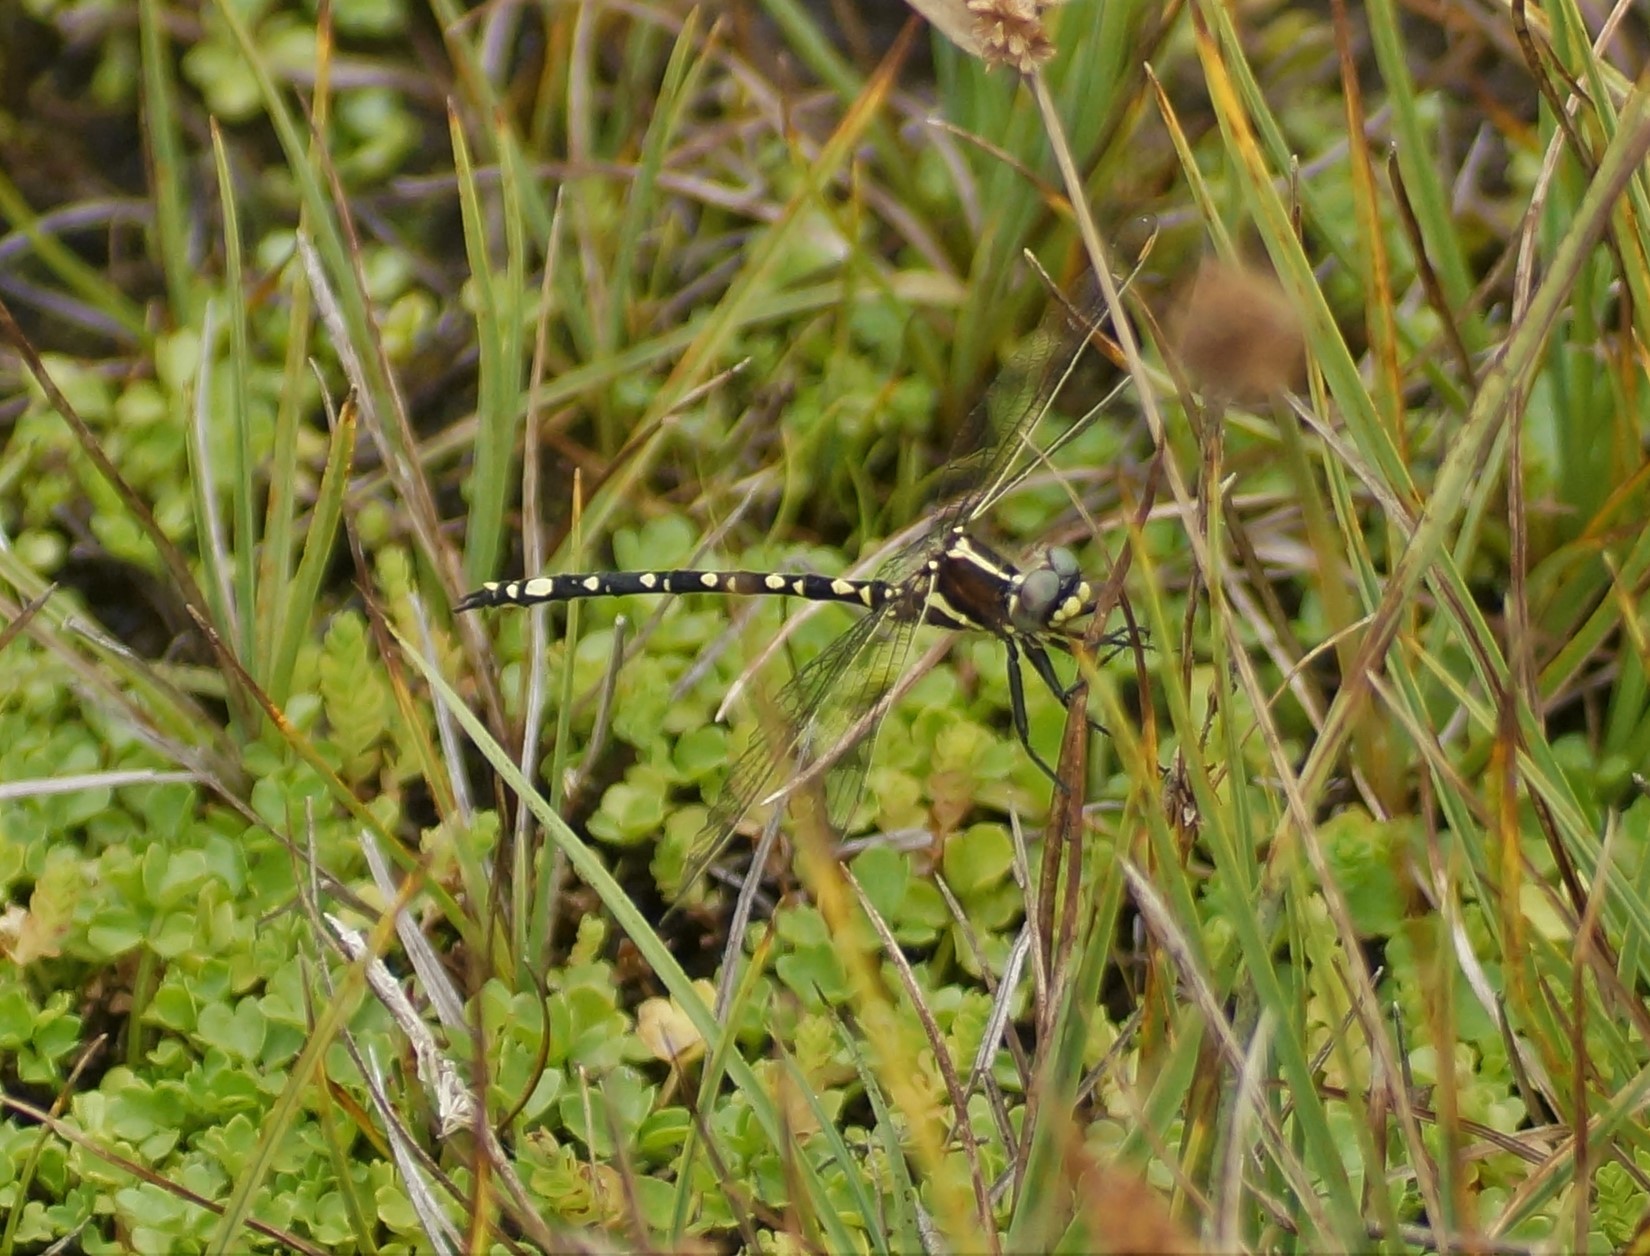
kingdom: Animalia
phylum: Arthropoda
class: Insecta
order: Odonata
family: Synthemistidae
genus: Synthemis
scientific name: Synthemis eustalacta
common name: Swamp tigertail
